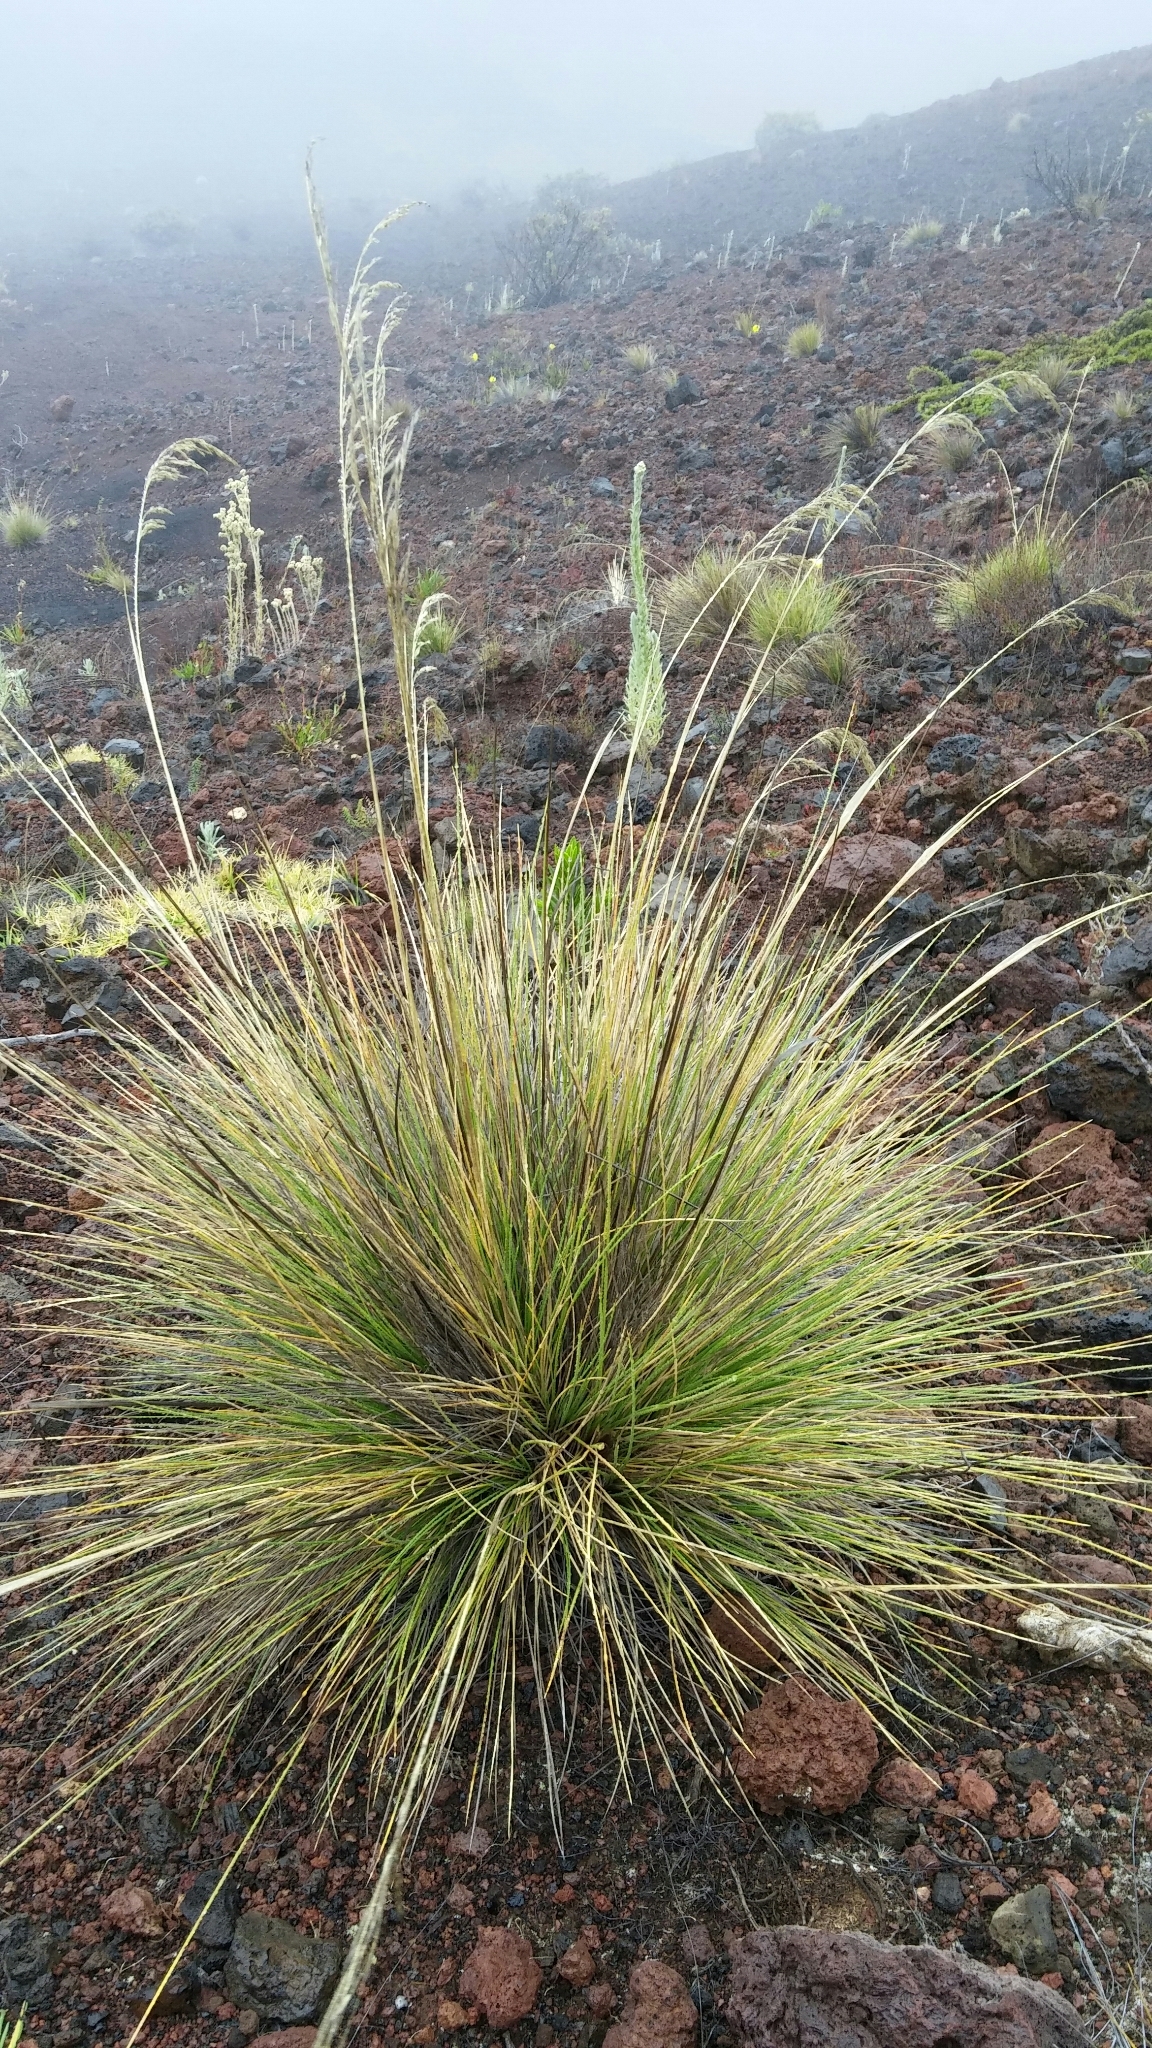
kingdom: Plantae
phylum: Tracheophyta
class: Liliopsida
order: Poales
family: Poaceae
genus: Deschampsia
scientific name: Deschampsia nubigena
